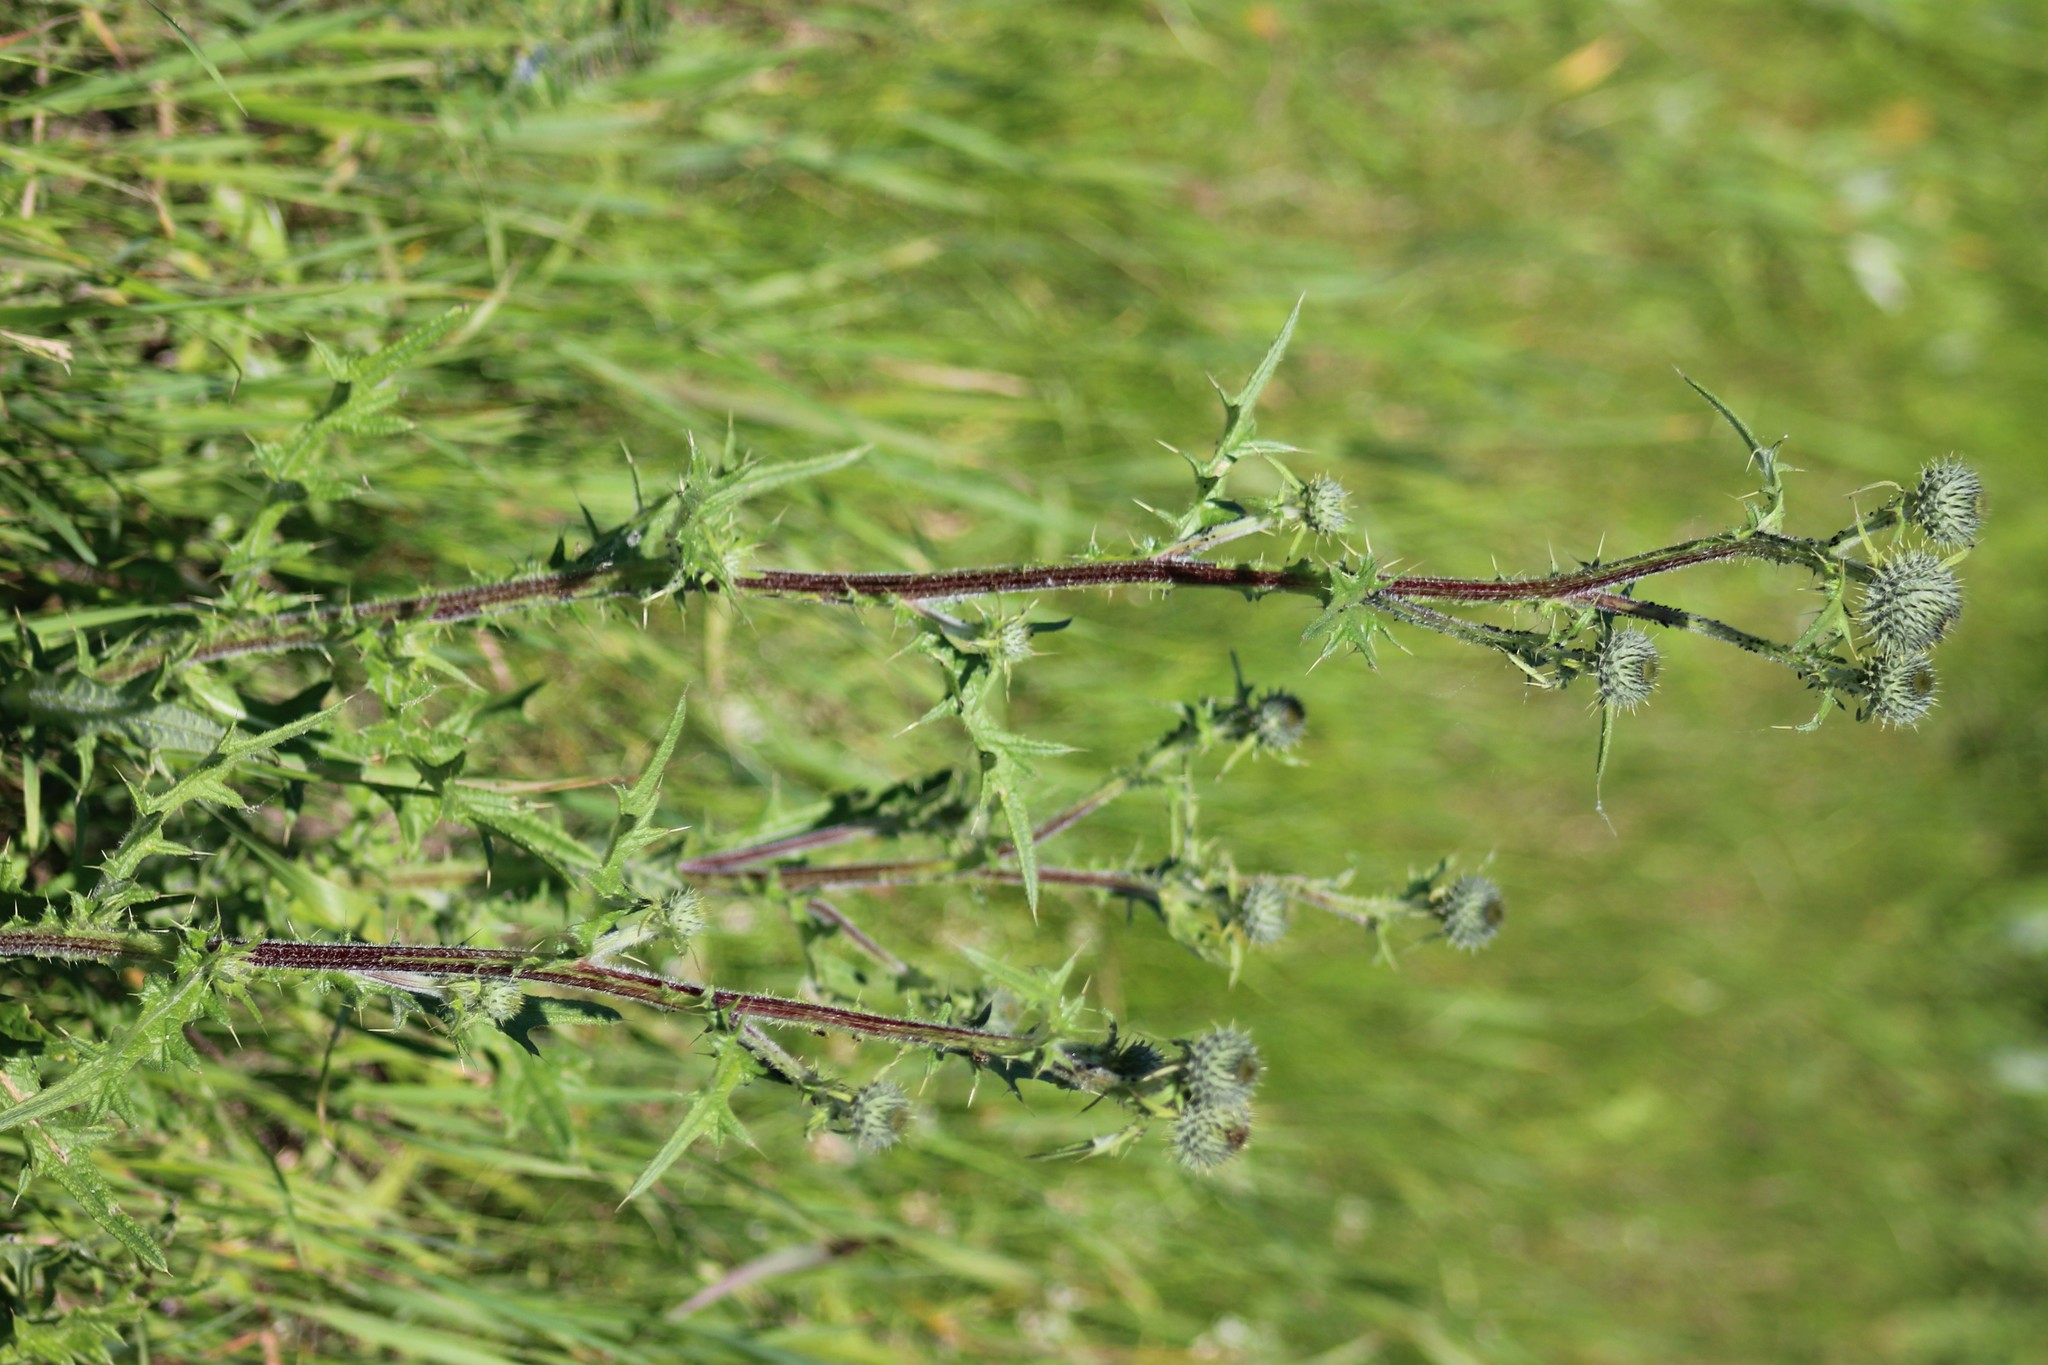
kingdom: Plantae
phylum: Tracheophyta
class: Magnoliopsida
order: Asterales
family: Asteraceae
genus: Cirsium
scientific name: Cirsium vulgare
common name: Bull thistle
